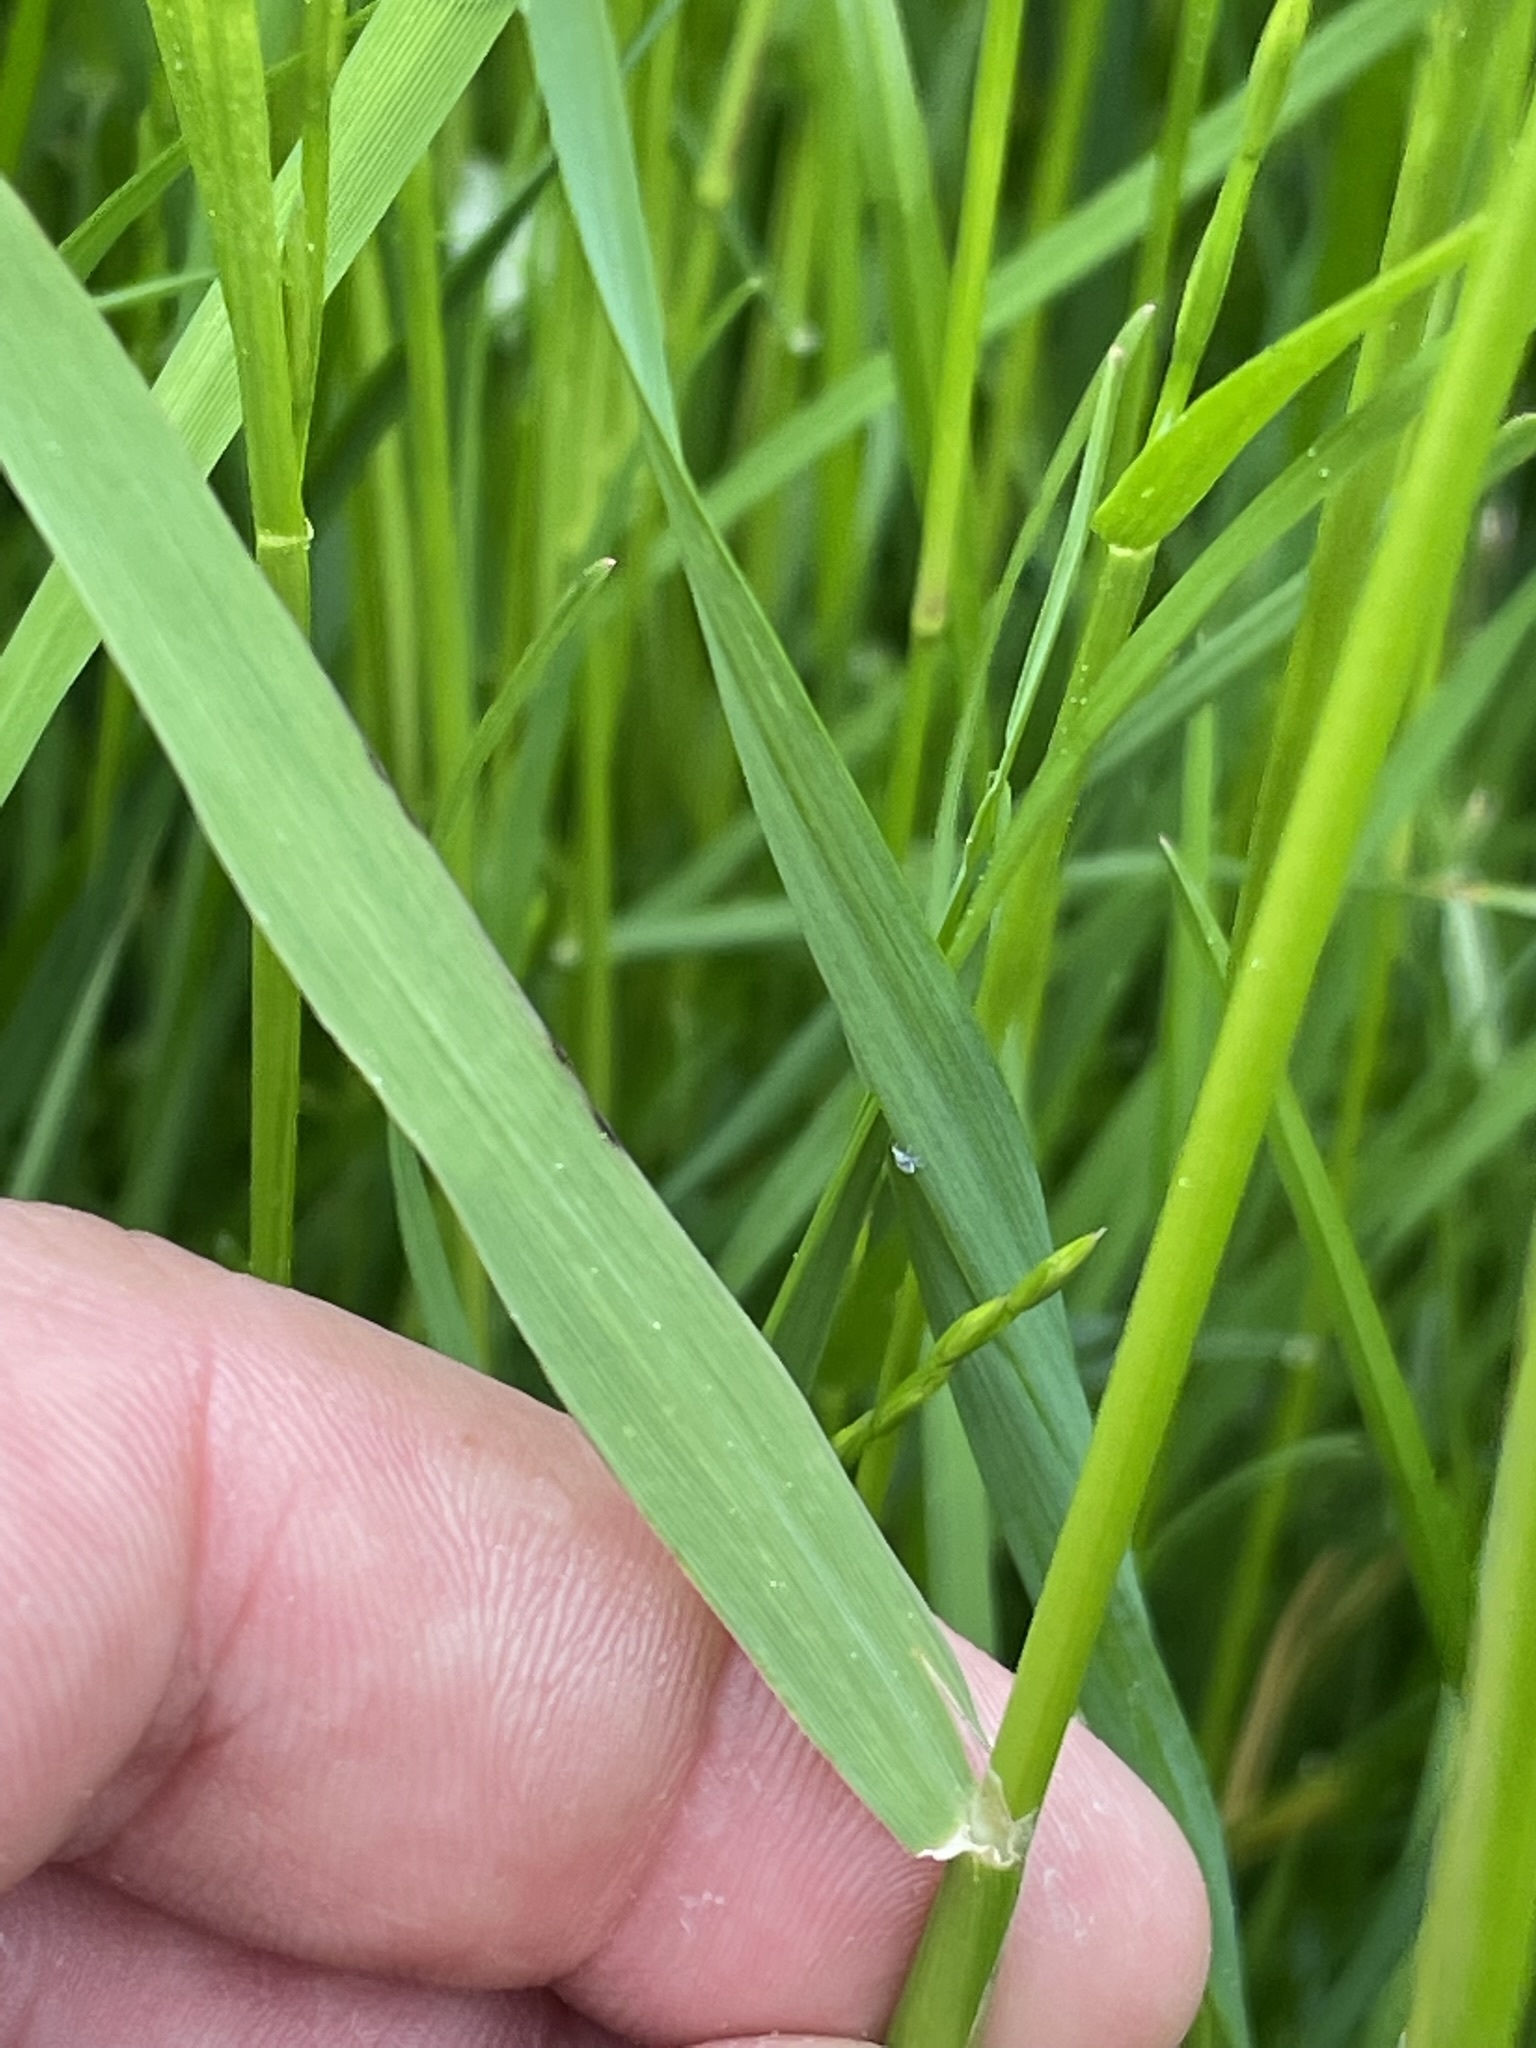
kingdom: Plantae
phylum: Tracheophyta
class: Liliopsida
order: Poales
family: Poaceae
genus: Alopecurus
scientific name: Alopecurus pratensis
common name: Meadow foxtail
